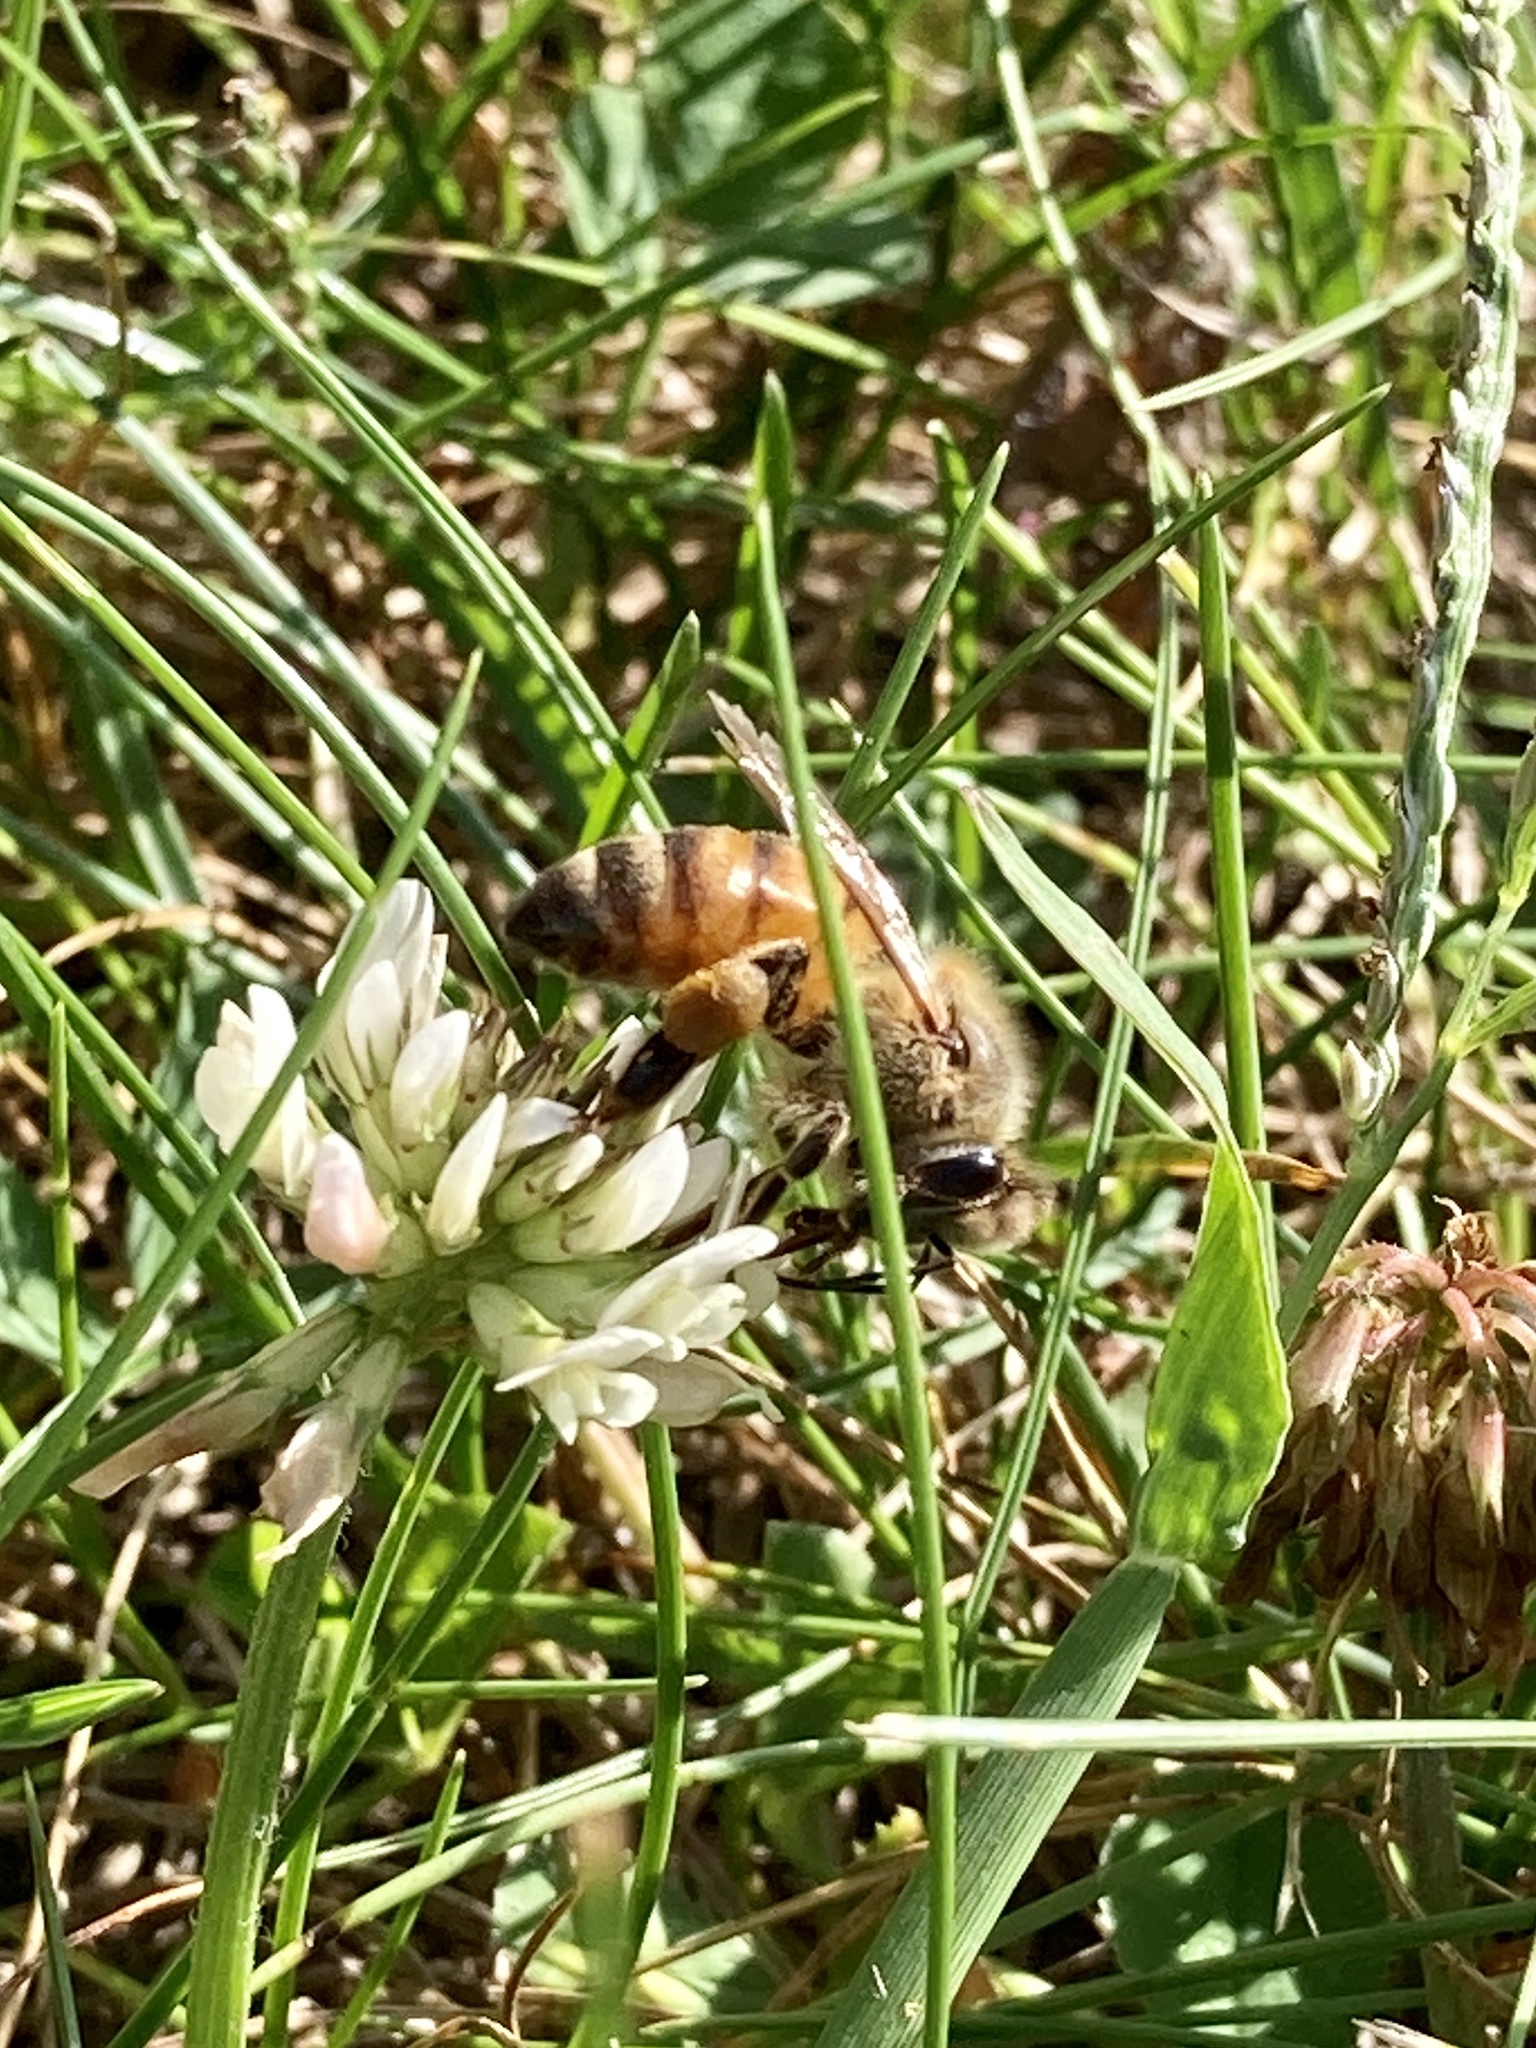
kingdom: Animalia
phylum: Arthropoda
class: Insecta
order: Hymenoptera
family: Apidae
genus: Apis
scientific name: Apis mellifera
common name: Honey bee
